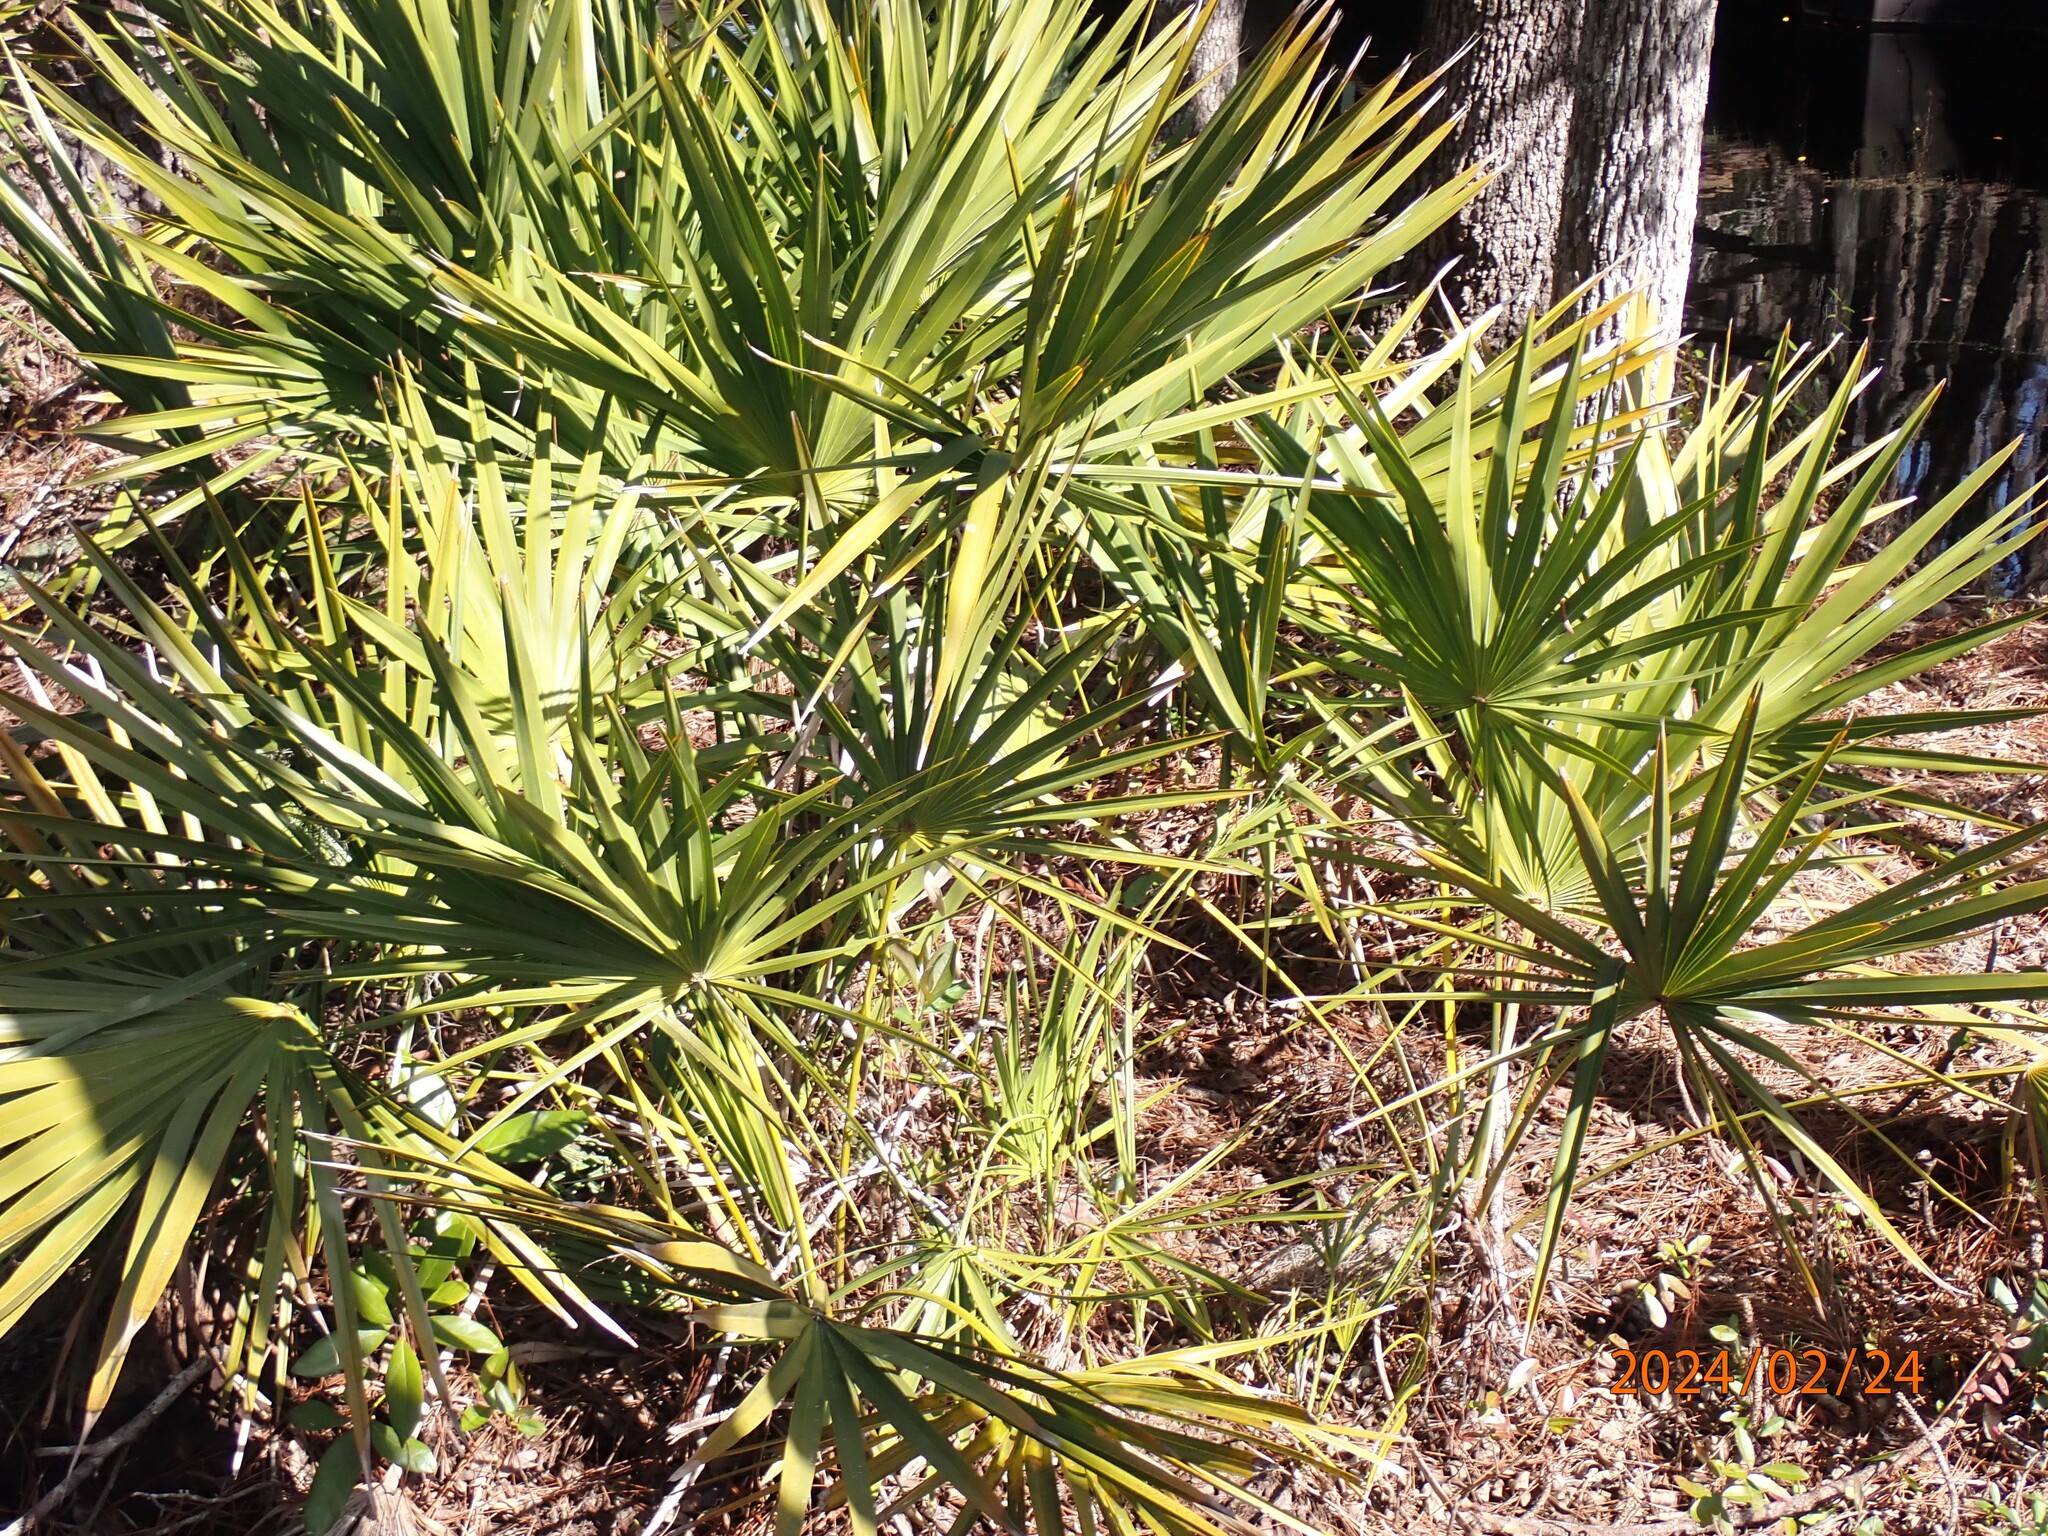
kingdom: Plantae
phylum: Tracheophyta
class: Liliopsida
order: Arecales
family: Arecaceae
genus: Serenoa
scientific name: Serenoa repens
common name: Saw-palmetto
